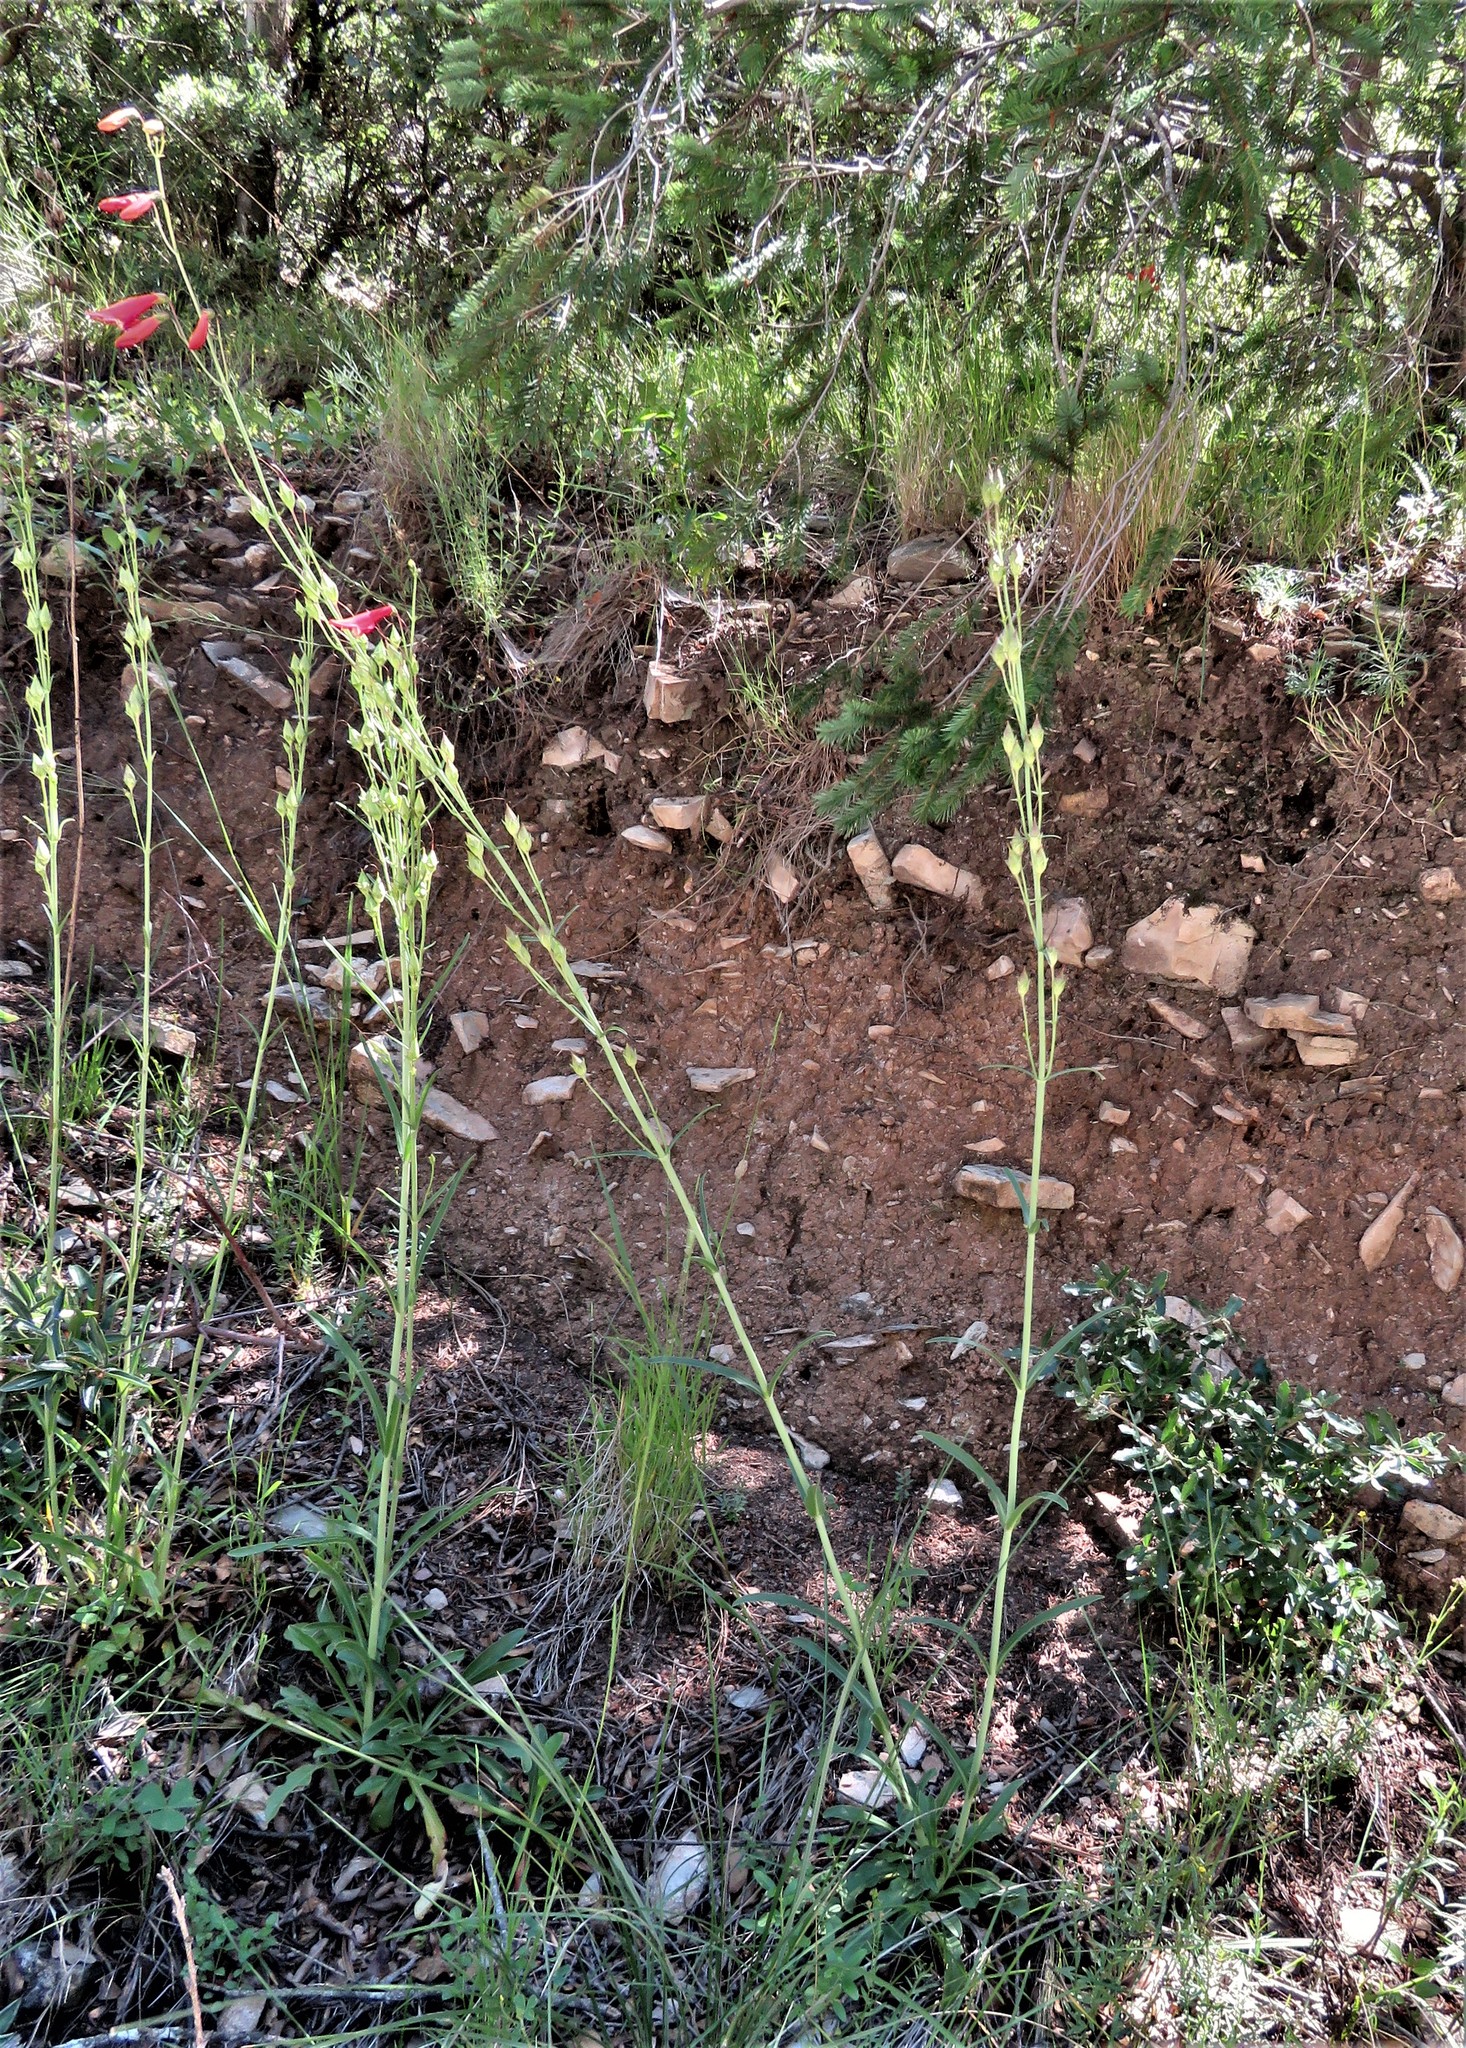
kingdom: Plantae
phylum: Tracheophyta
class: Magnoliopsida
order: Lamiales
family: Plantaginaceae
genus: Penstemon
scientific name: Penstemon barbatus
